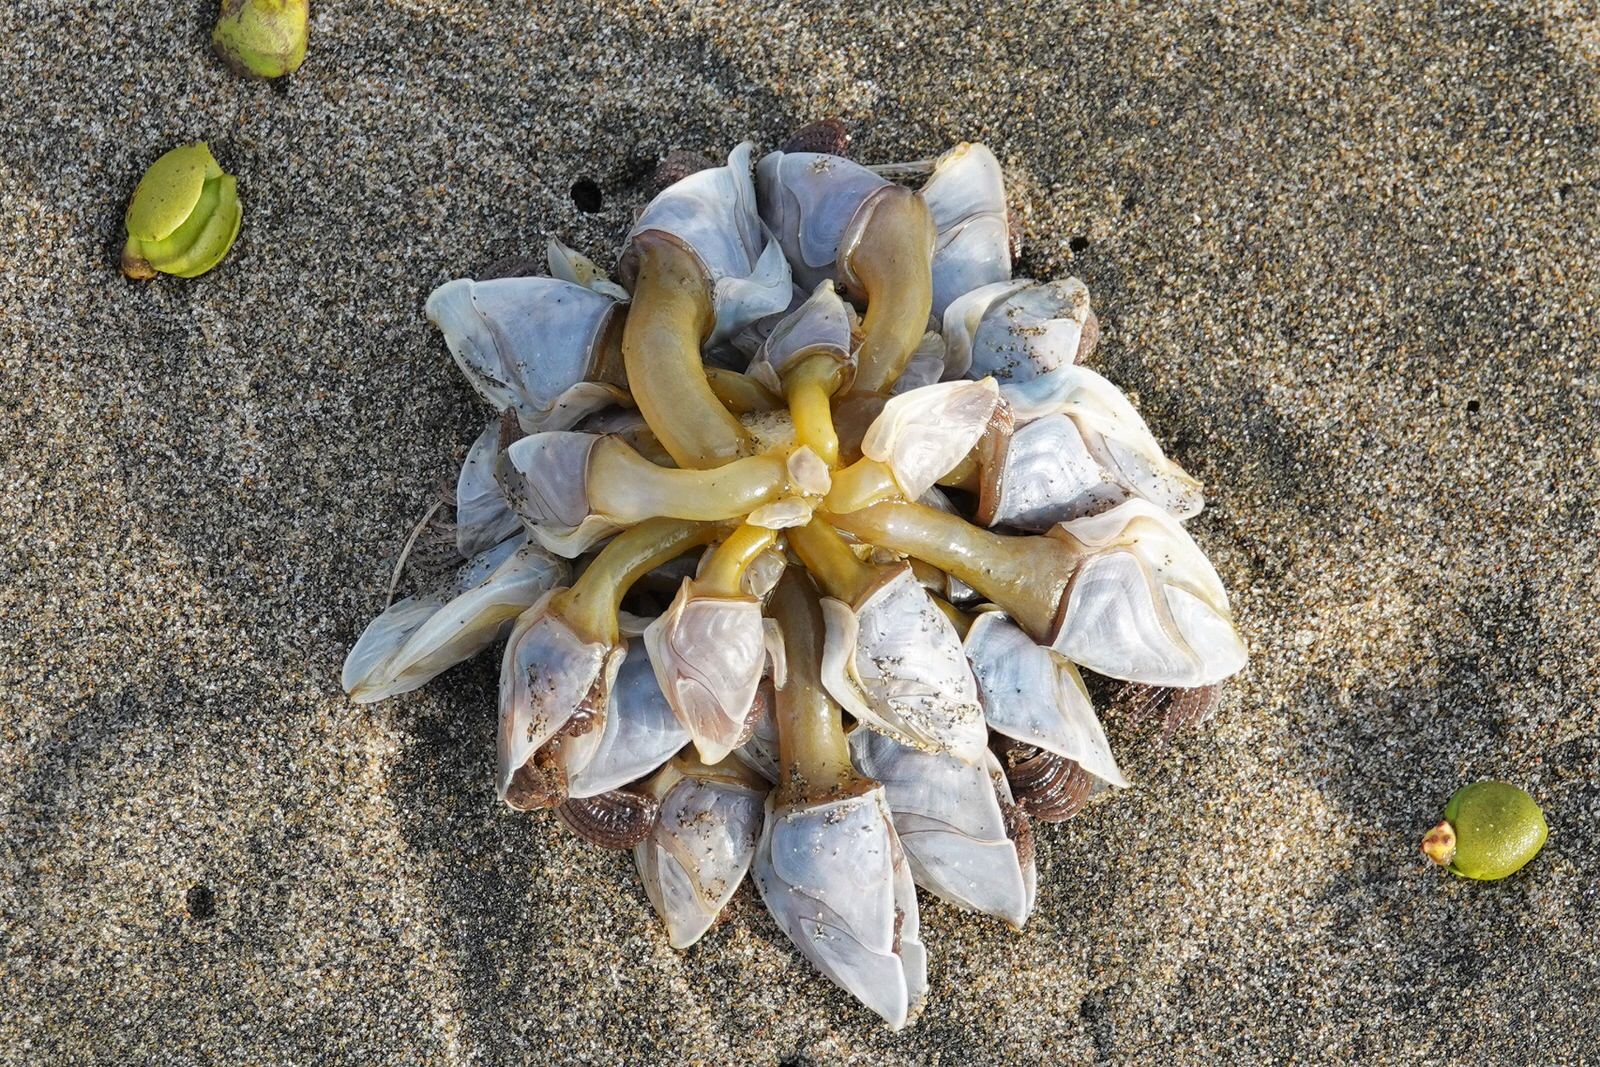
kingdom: Animalia
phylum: Arthropoda
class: Maxillopoda
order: Pedunculata
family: Lepadidae
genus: Dosima
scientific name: Dosima fascicularis
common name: Buoy barnacle
